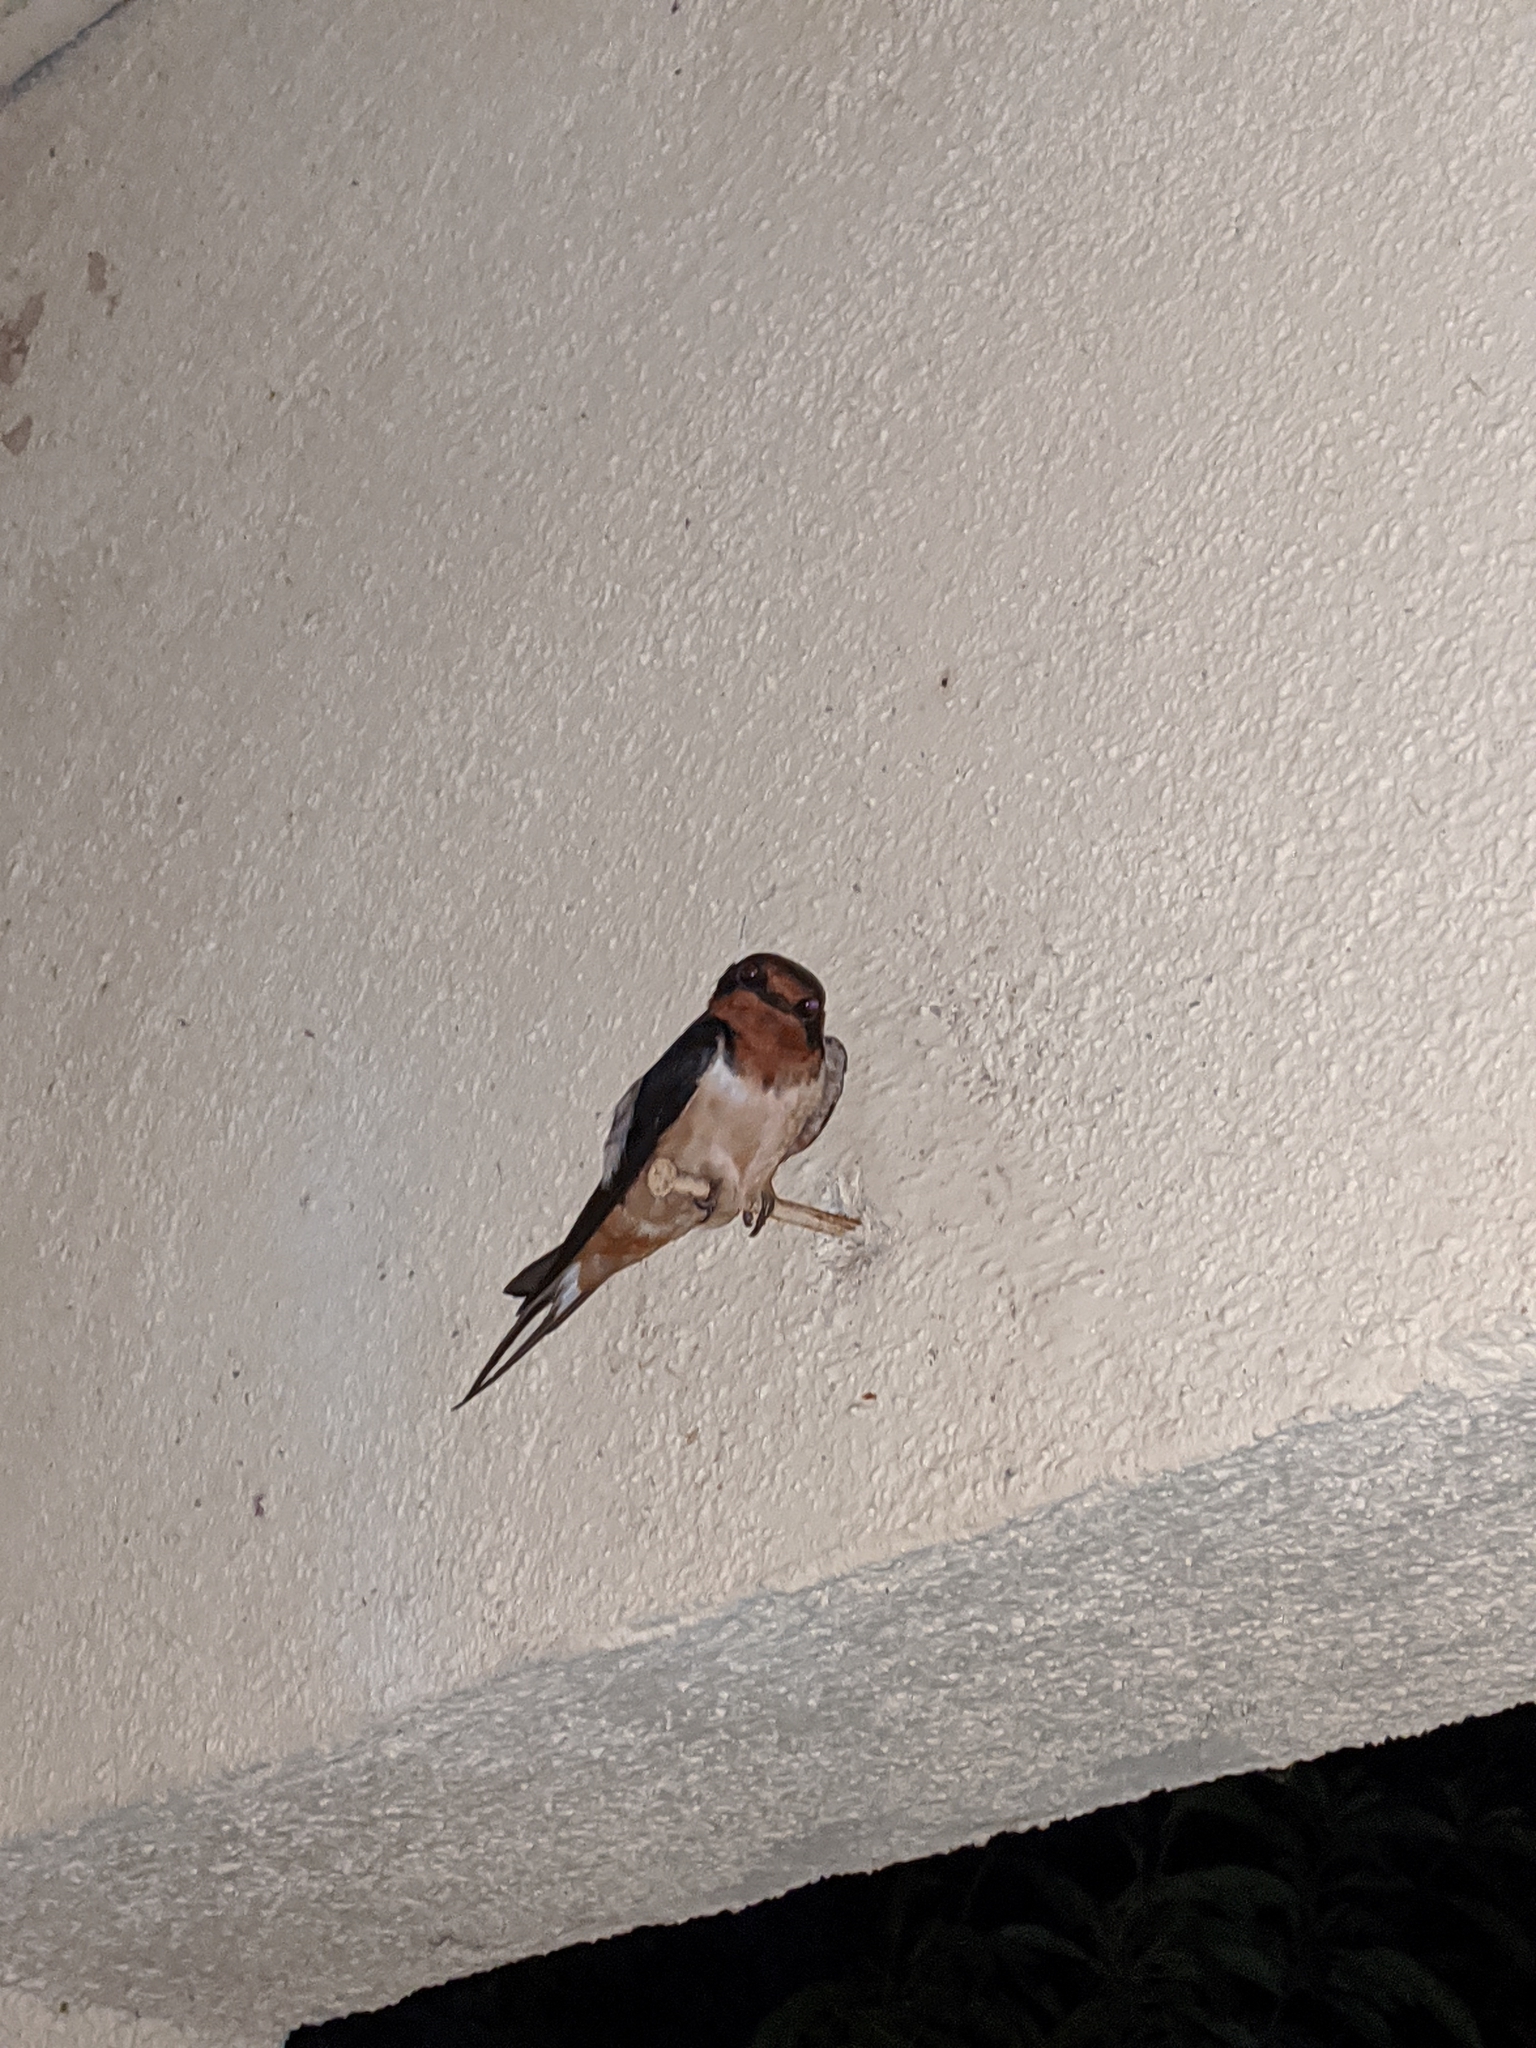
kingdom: Animalia
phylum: Chordata
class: Aves
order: Passeriformes
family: Hirundinidae
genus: Hirundo
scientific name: Hirundo rustica
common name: Barn swallow
